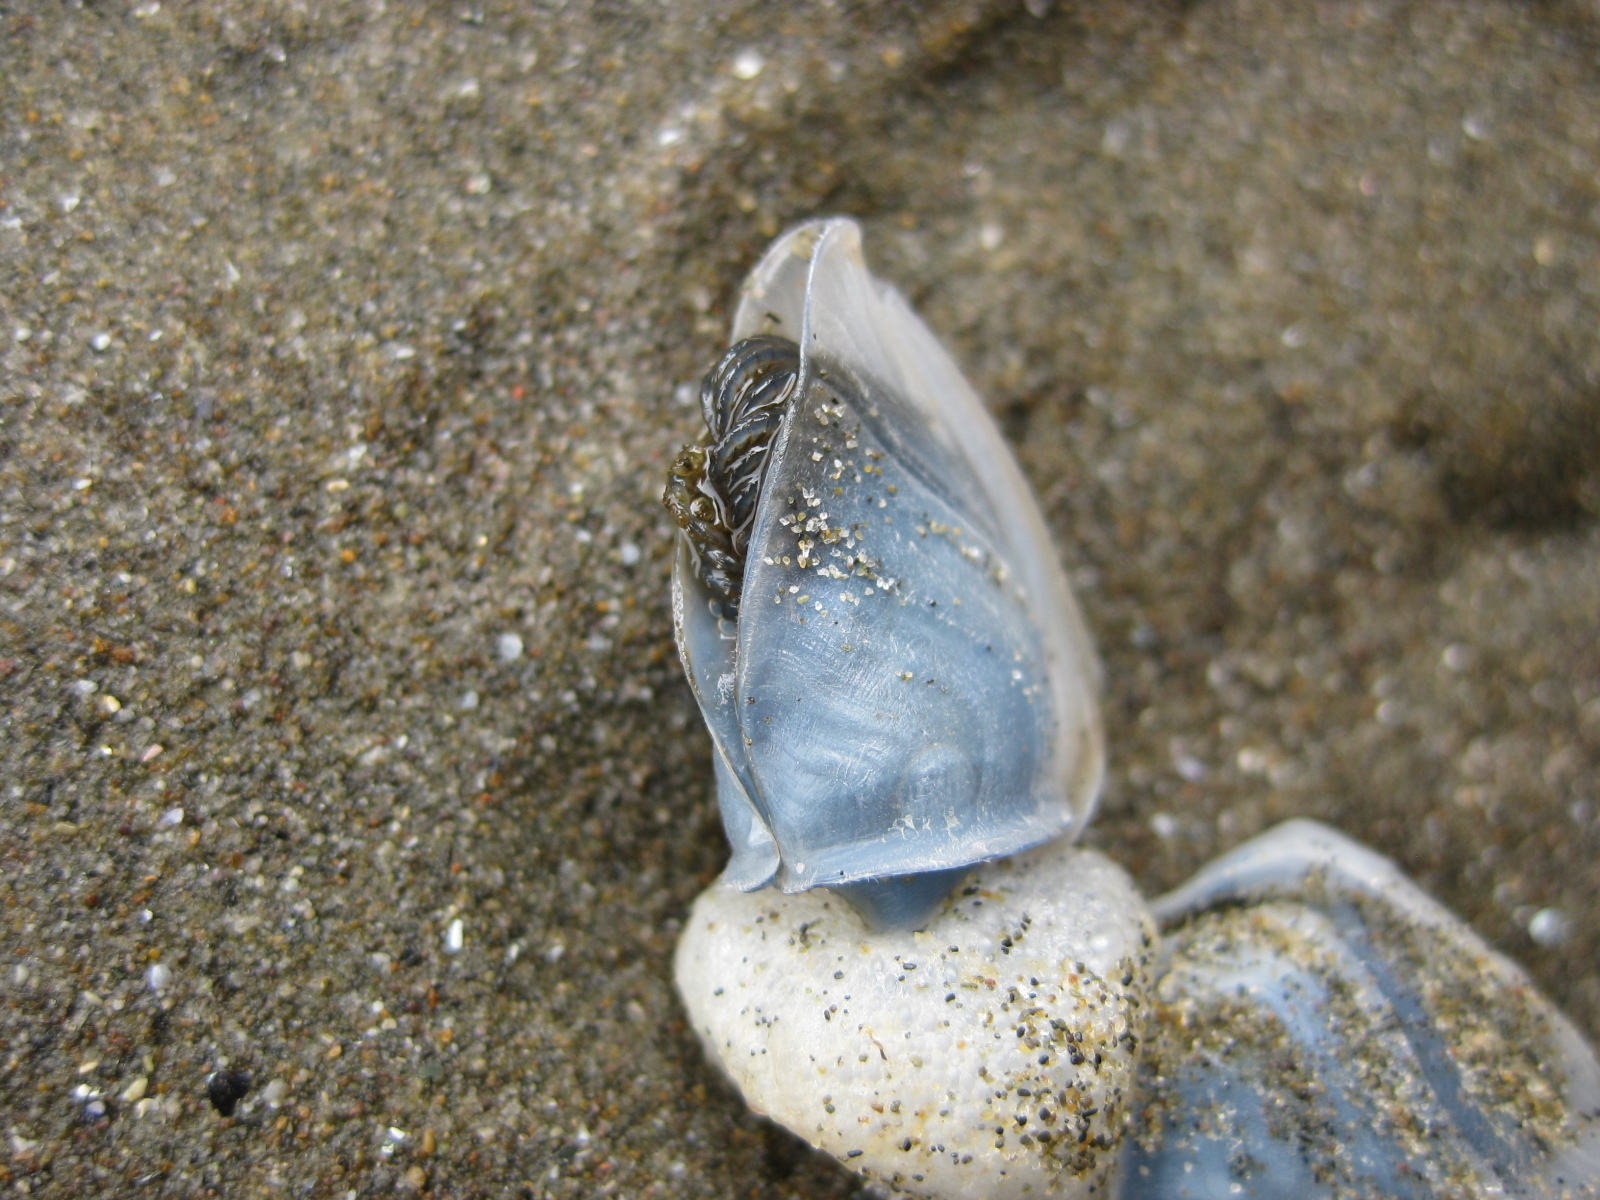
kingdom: Animalia
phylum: Arthropoda
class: Maxillopoda
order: Pedunculata
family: Lepadidae
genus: Dosima
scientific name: Dosima fascicularis
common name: Buoy barnacle
